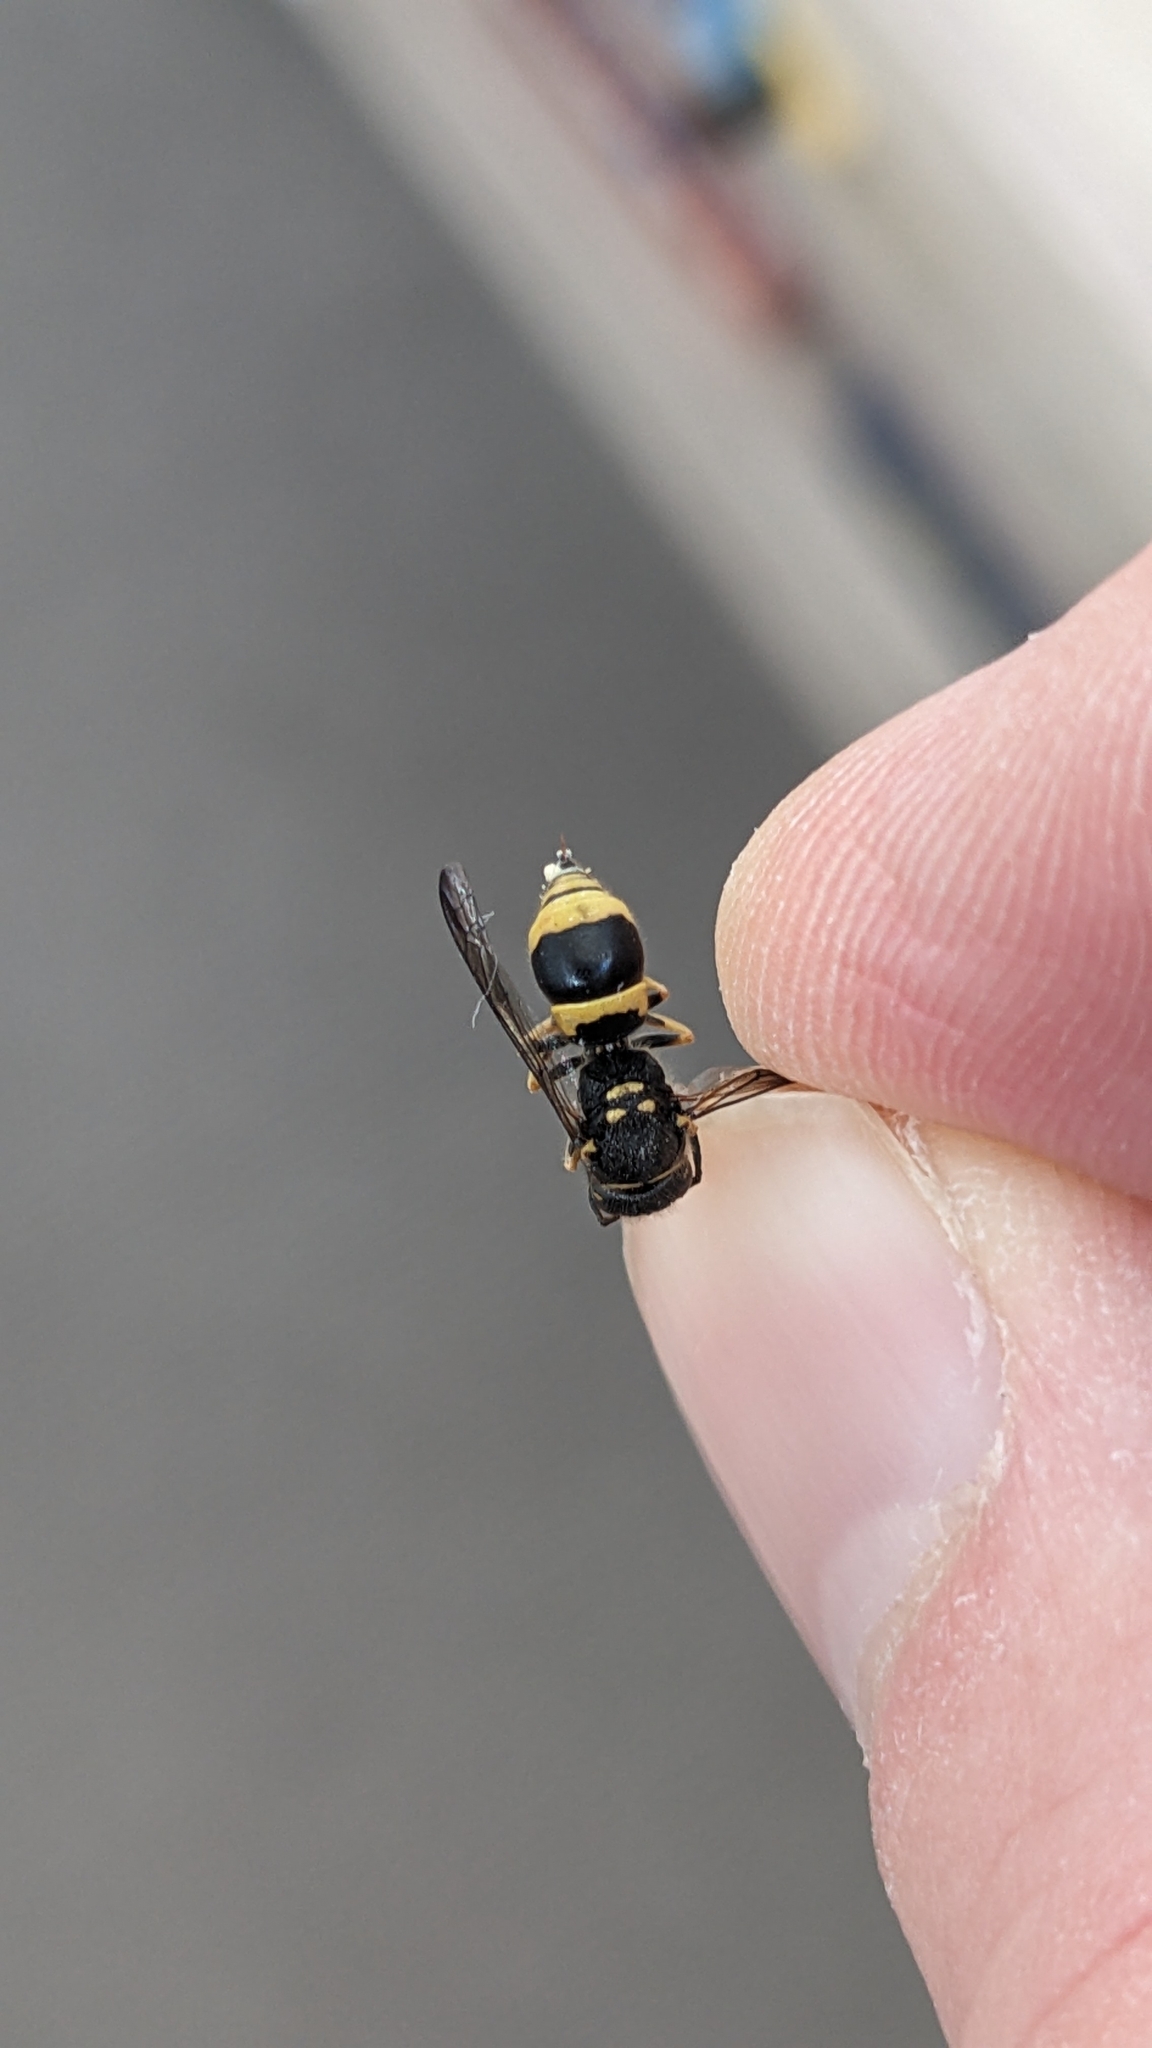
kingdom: Animalia
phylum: Arthropoda
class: Insecta
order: Hymenoptera
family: Vespidae
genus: Ancistrocerus
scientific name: Ancistrocerus gazella
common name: European tube wasp
